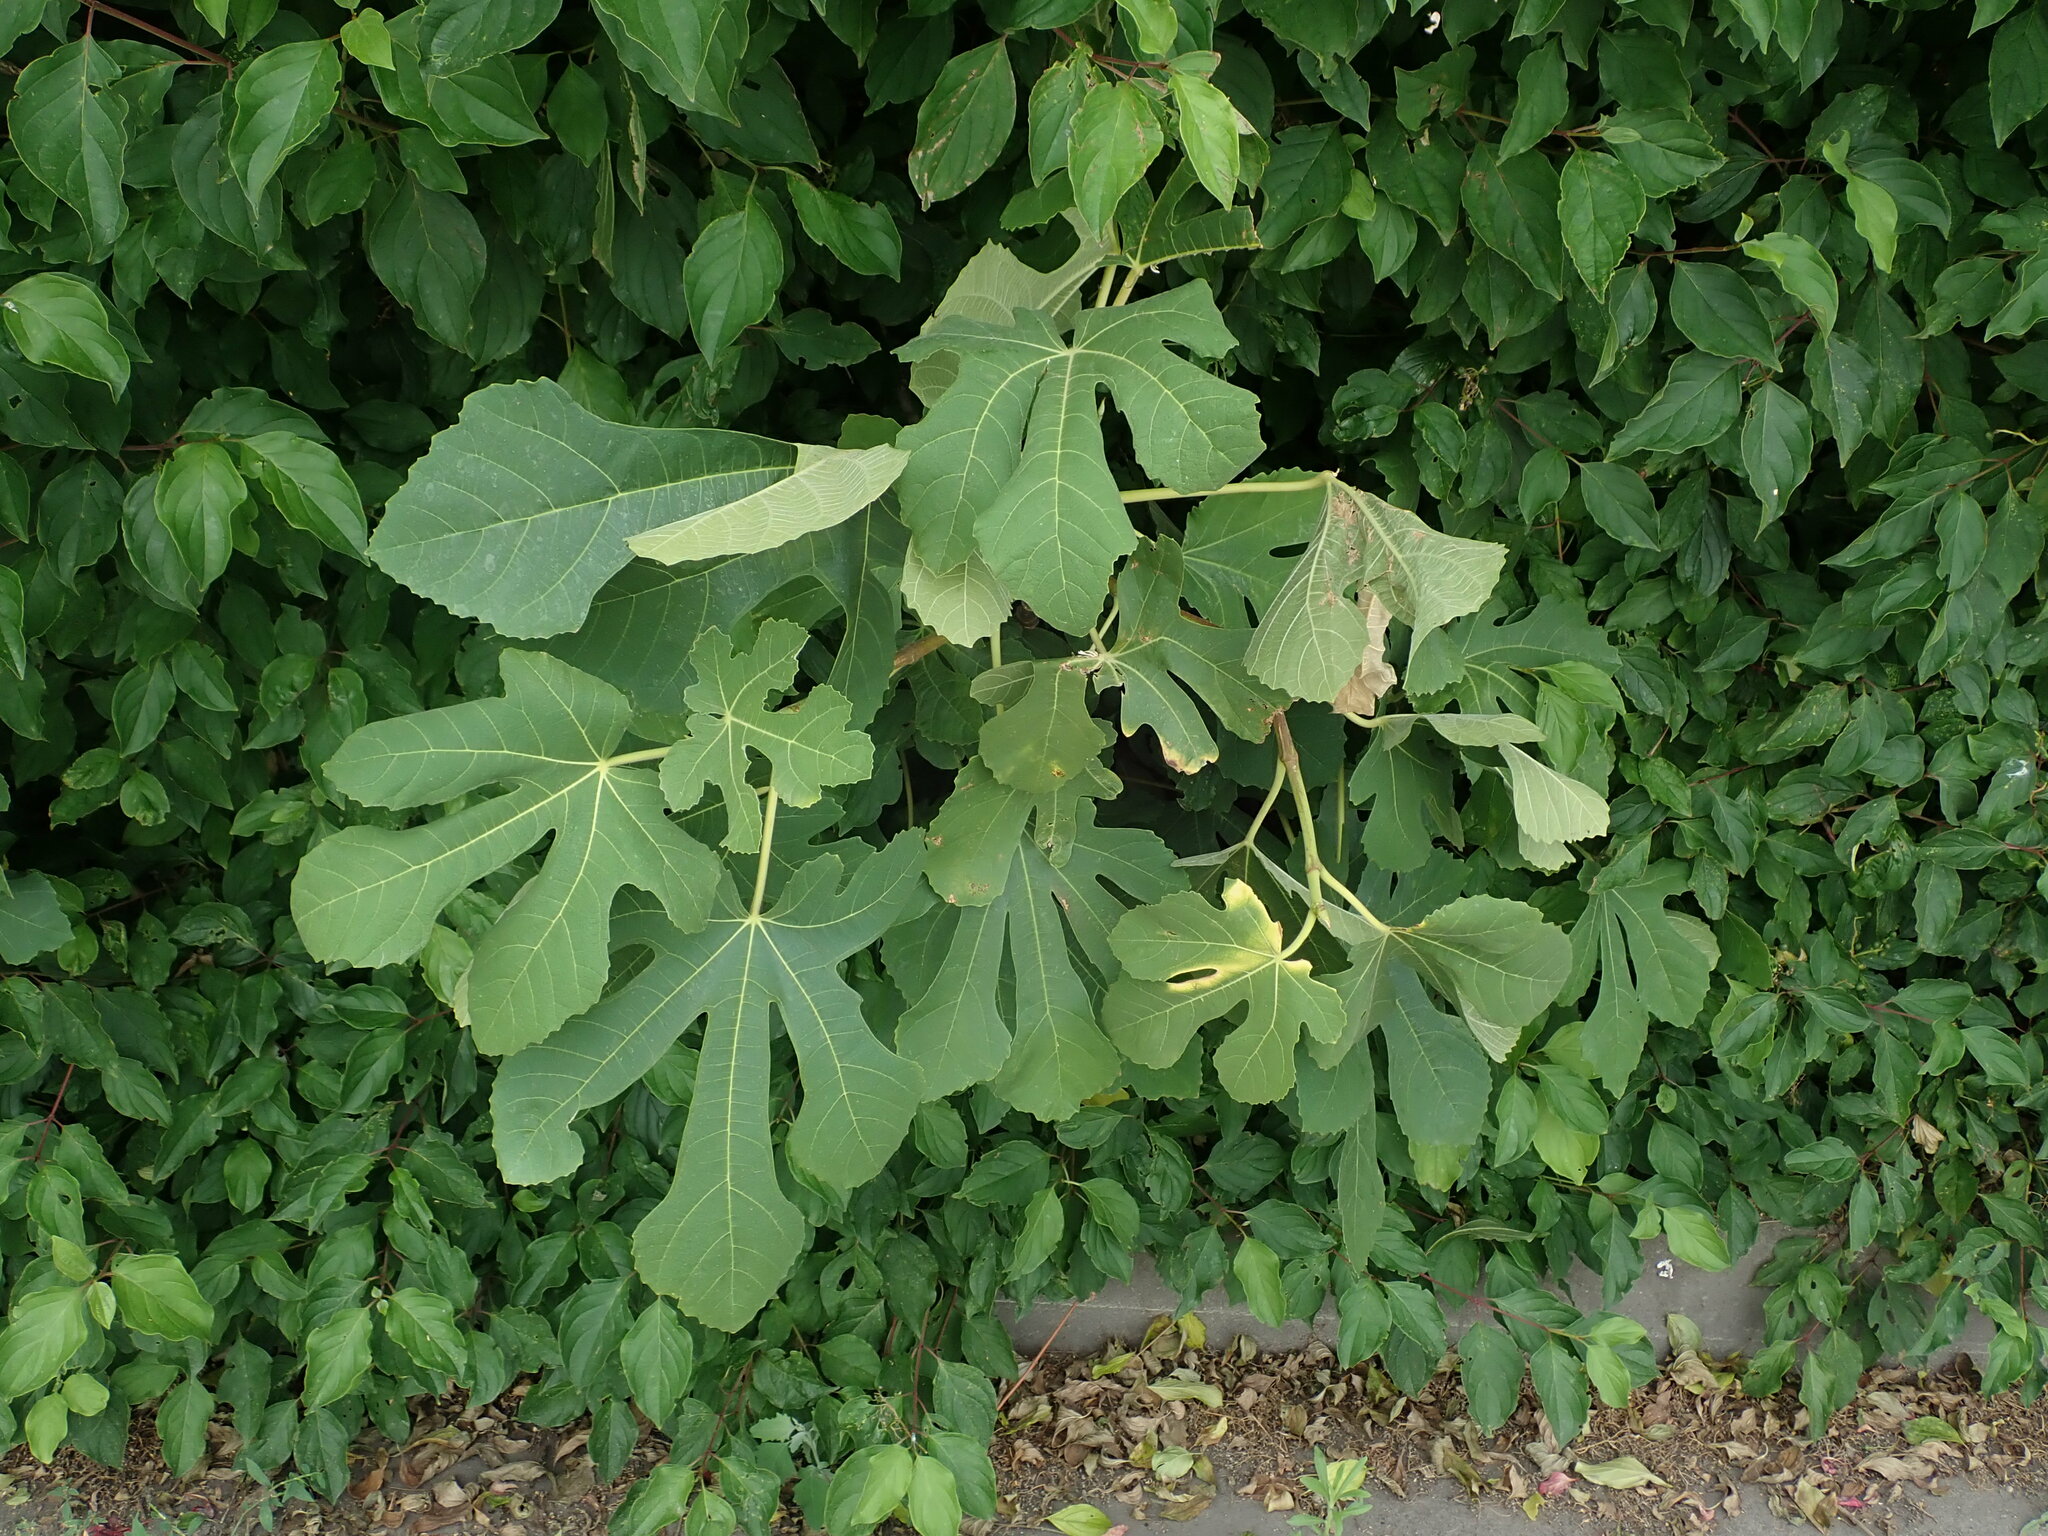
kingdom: Plantae
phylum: Tracheophyta
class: Magnoliopsida
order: Rosales
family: Moraceae
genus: Ficus
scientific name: Ficus carica
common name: Fig
